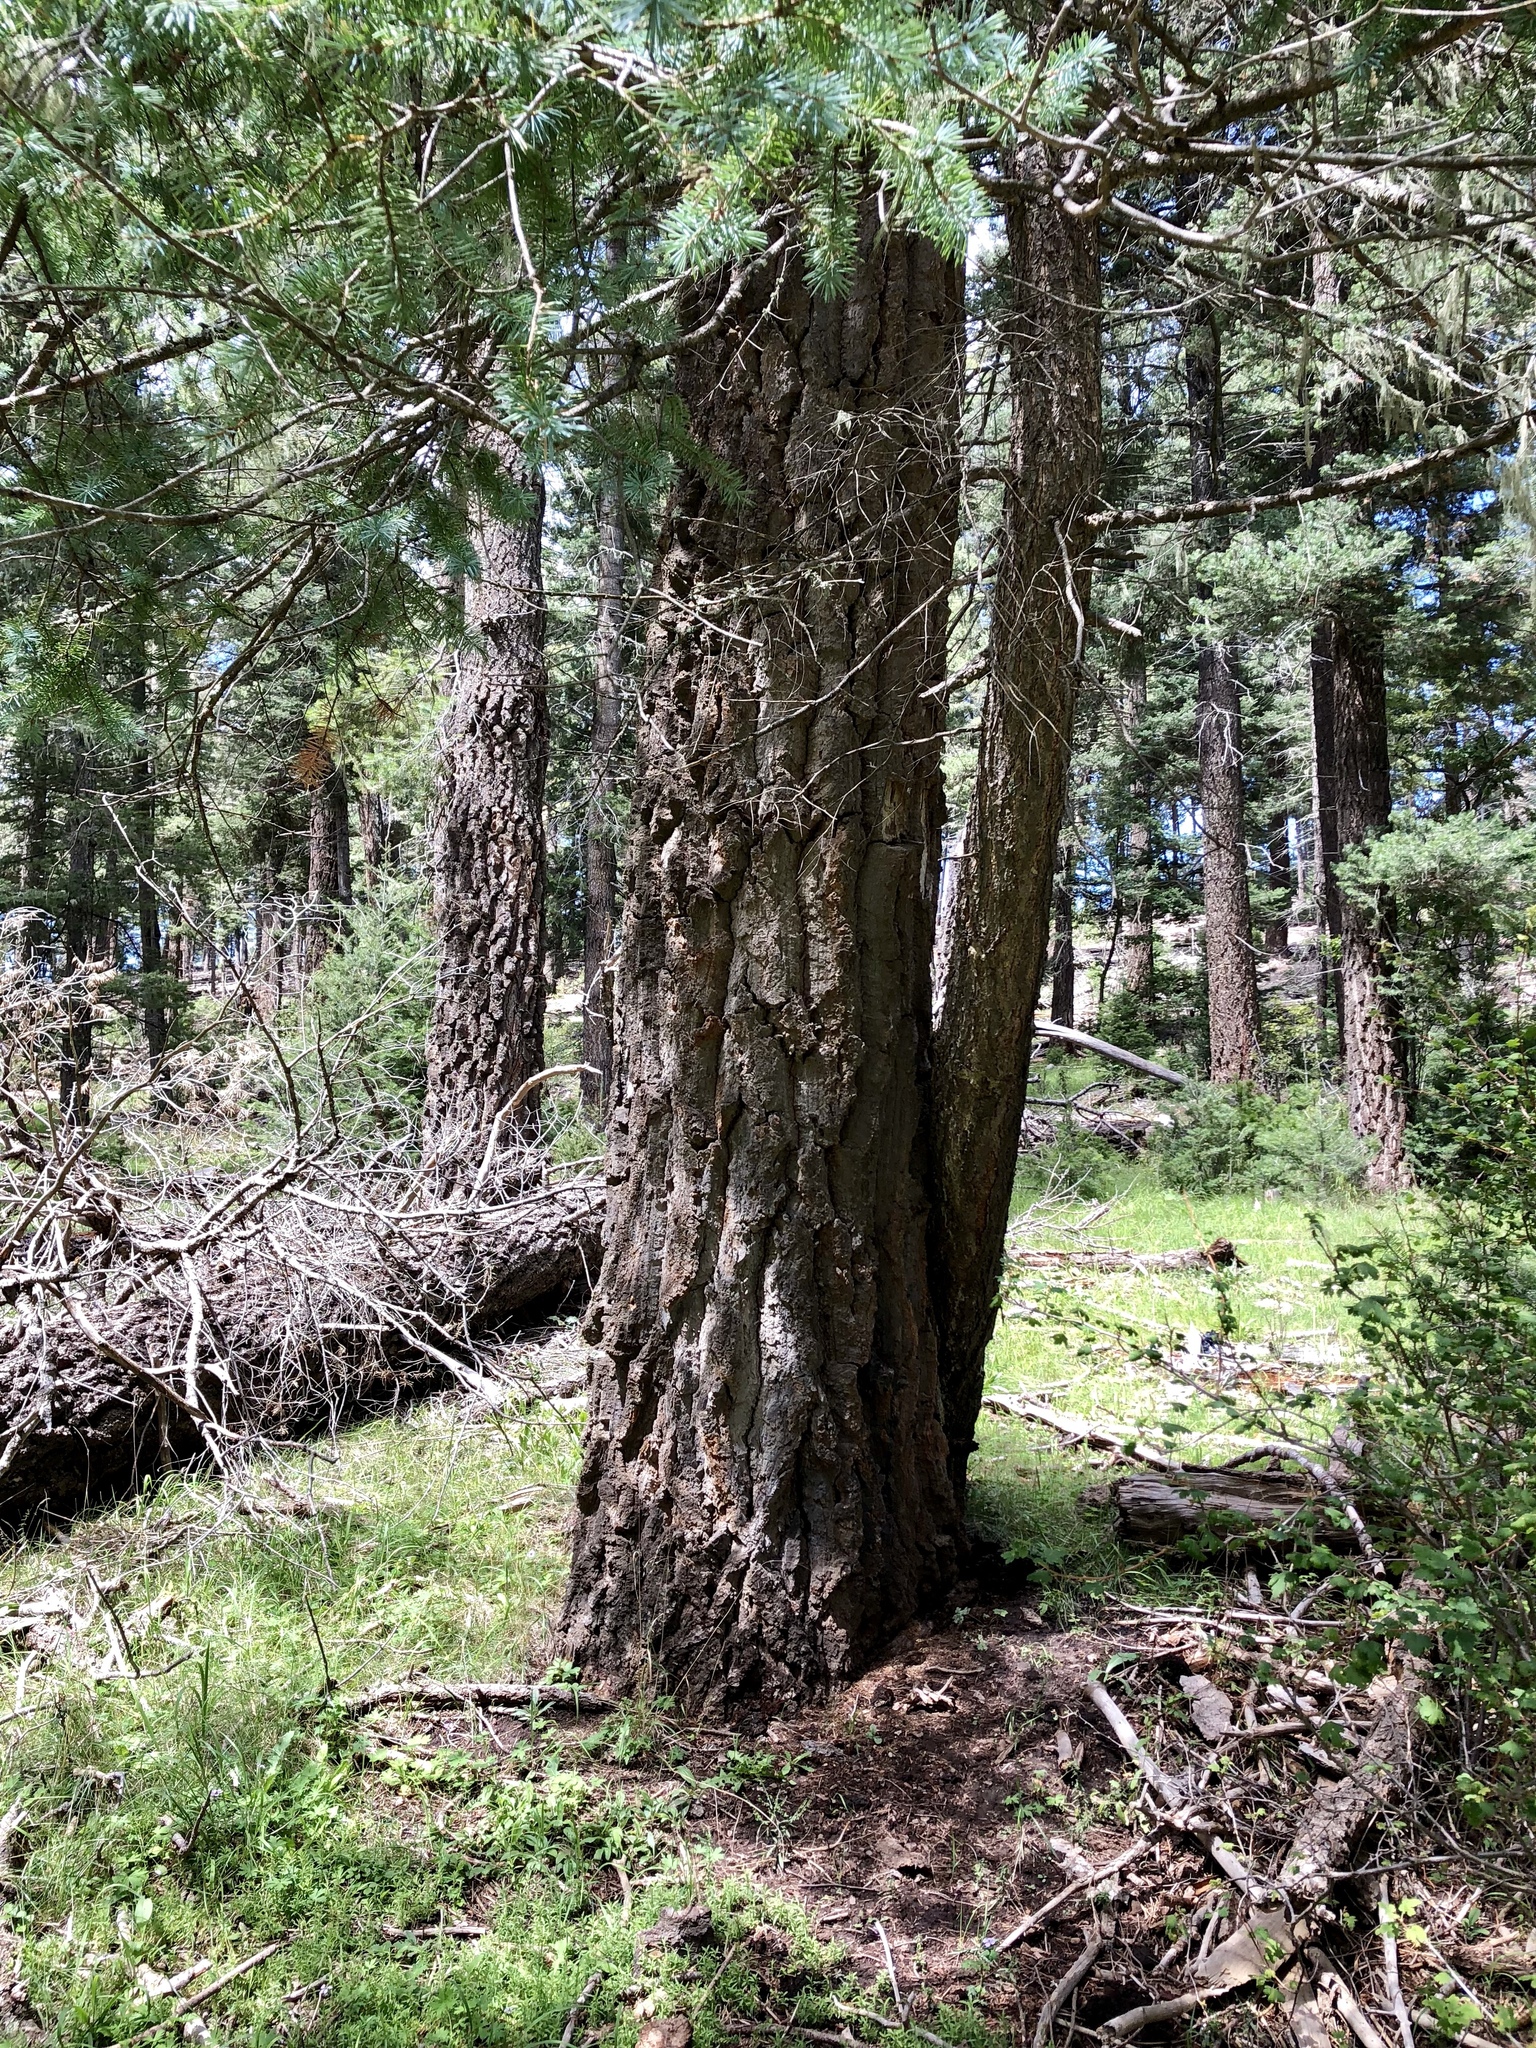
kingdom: Plantae
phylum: Tracheophyta
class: Pinopsida
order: Pinales
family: Pinaceae
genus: Pseudotsuga
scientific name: Pseudotsuga menziesii
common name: Douglas fir
